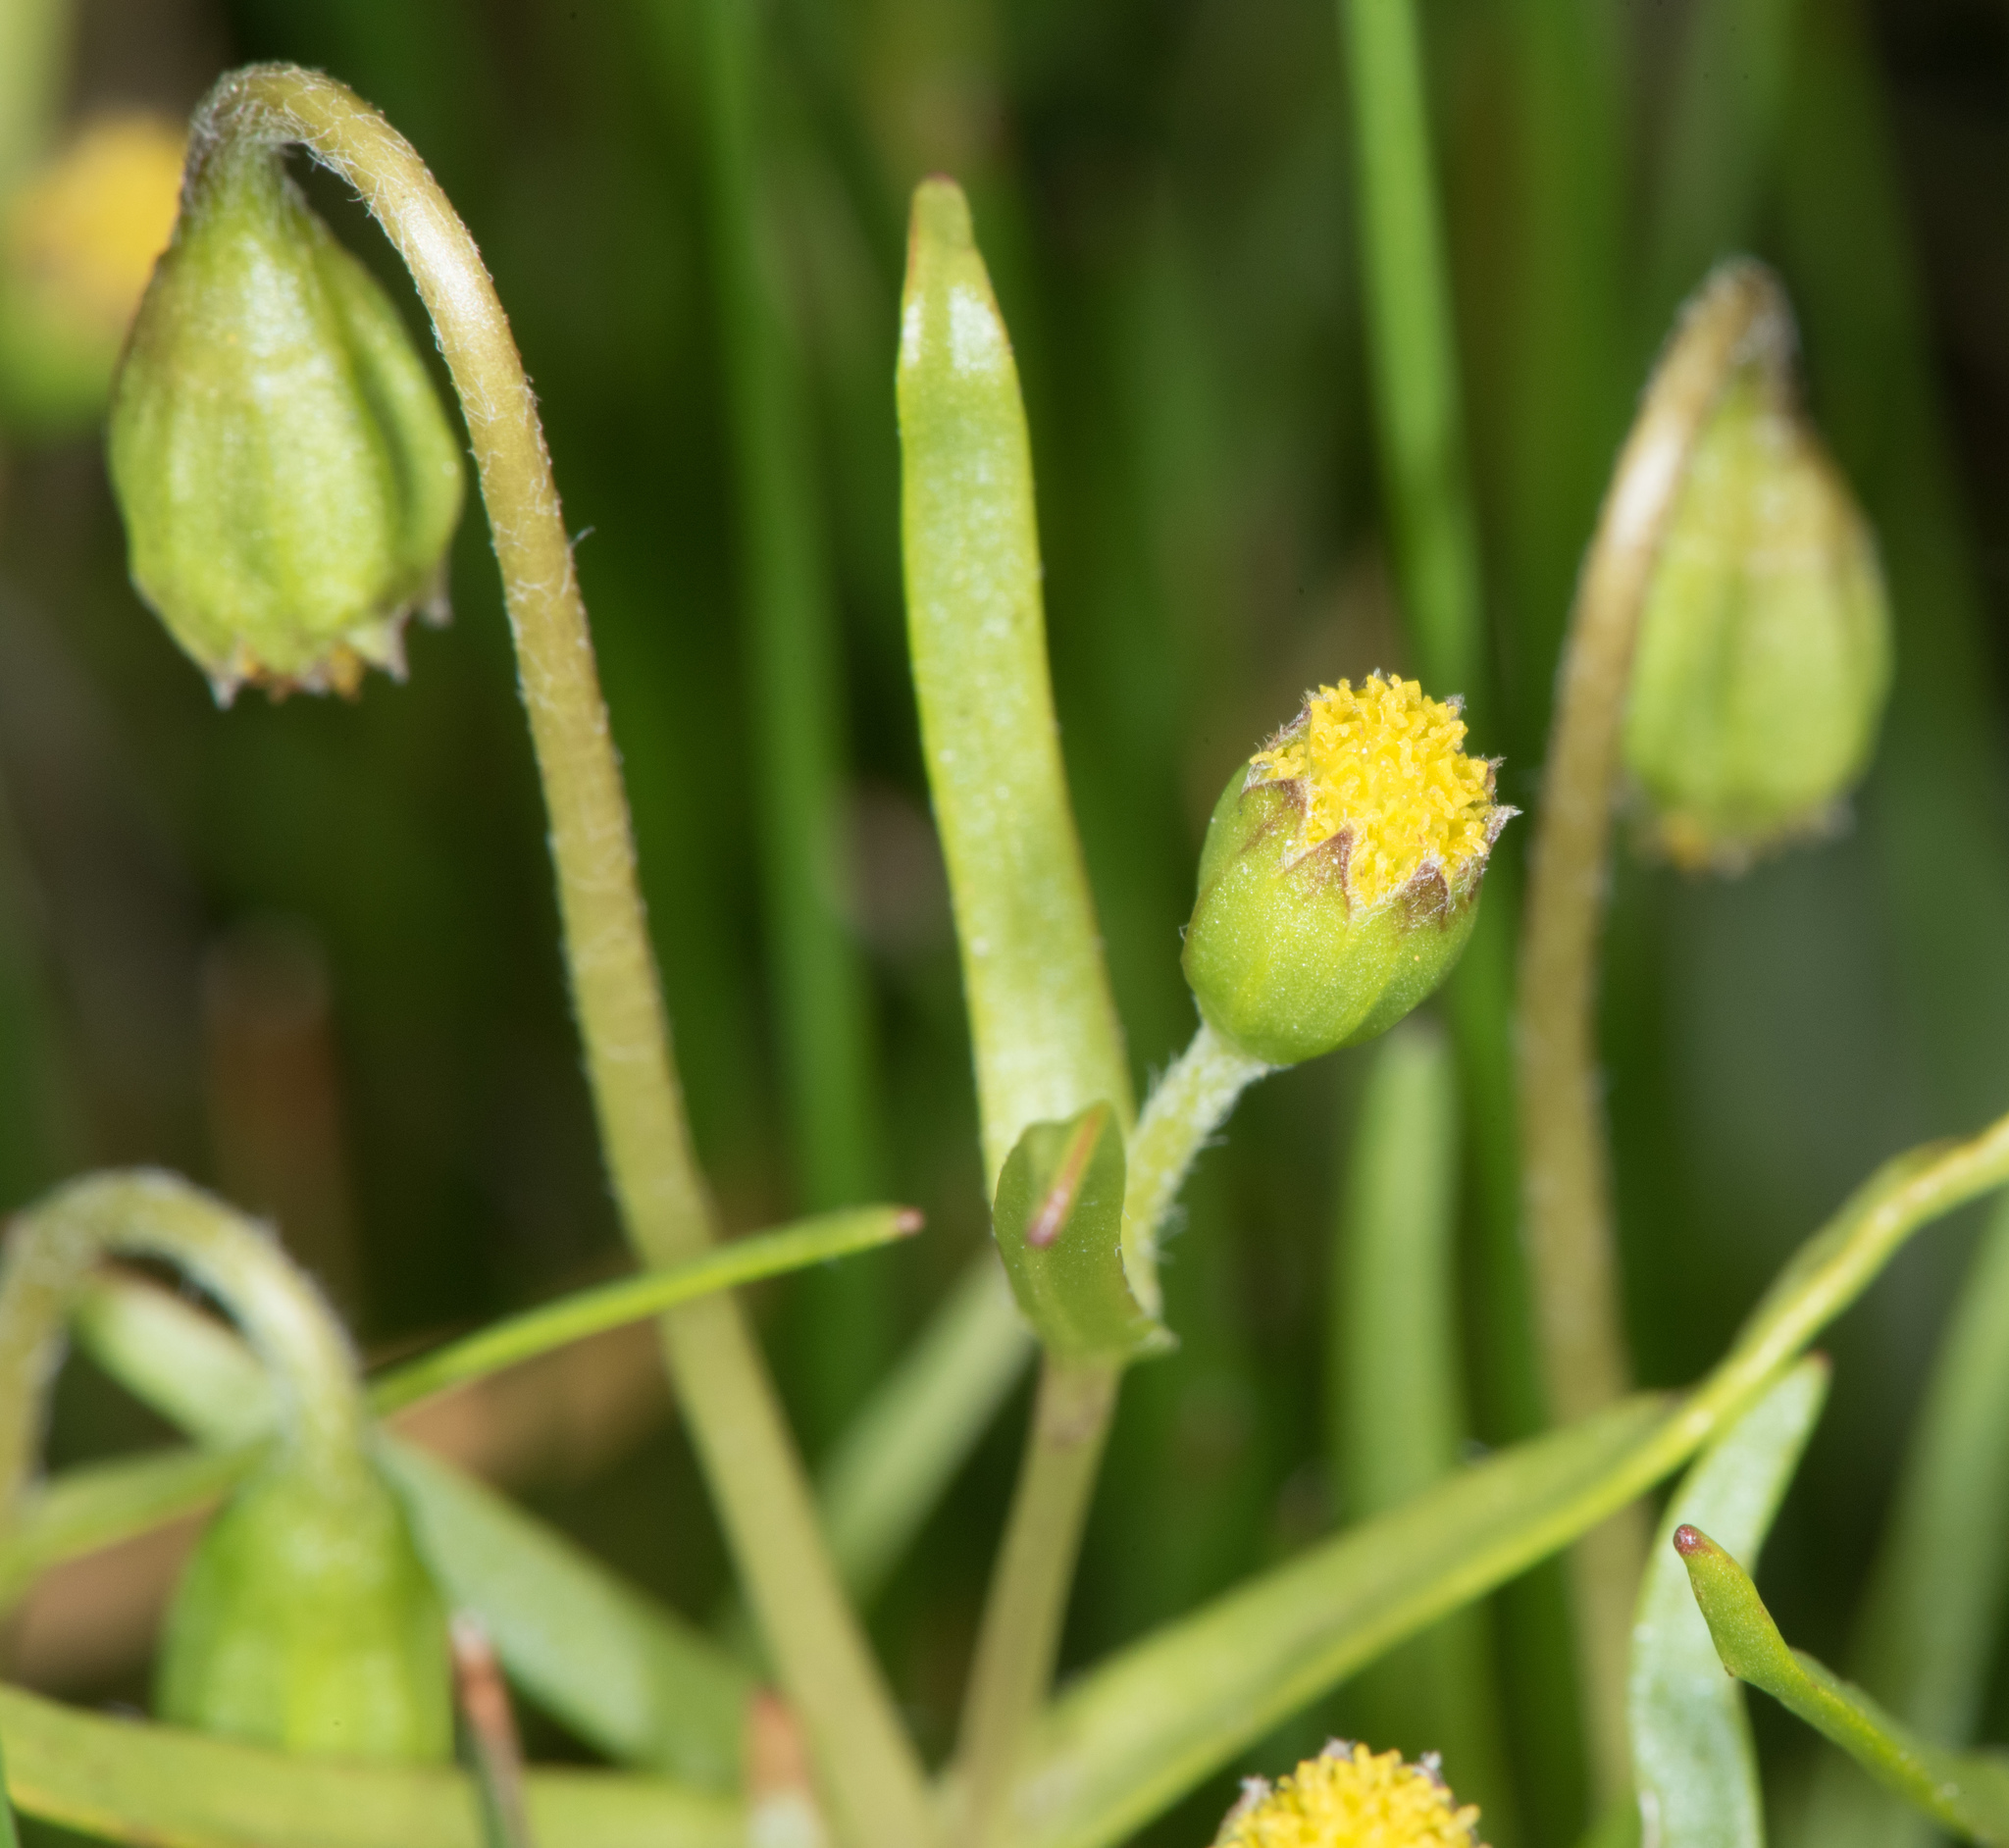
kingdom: Plantae
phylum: Tracheophyta
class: Magnoliopsida
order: Asterales
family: Asteraceae
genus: Lasthenia
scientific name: Lasthenia glaberrima
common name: Smooth goldfields
